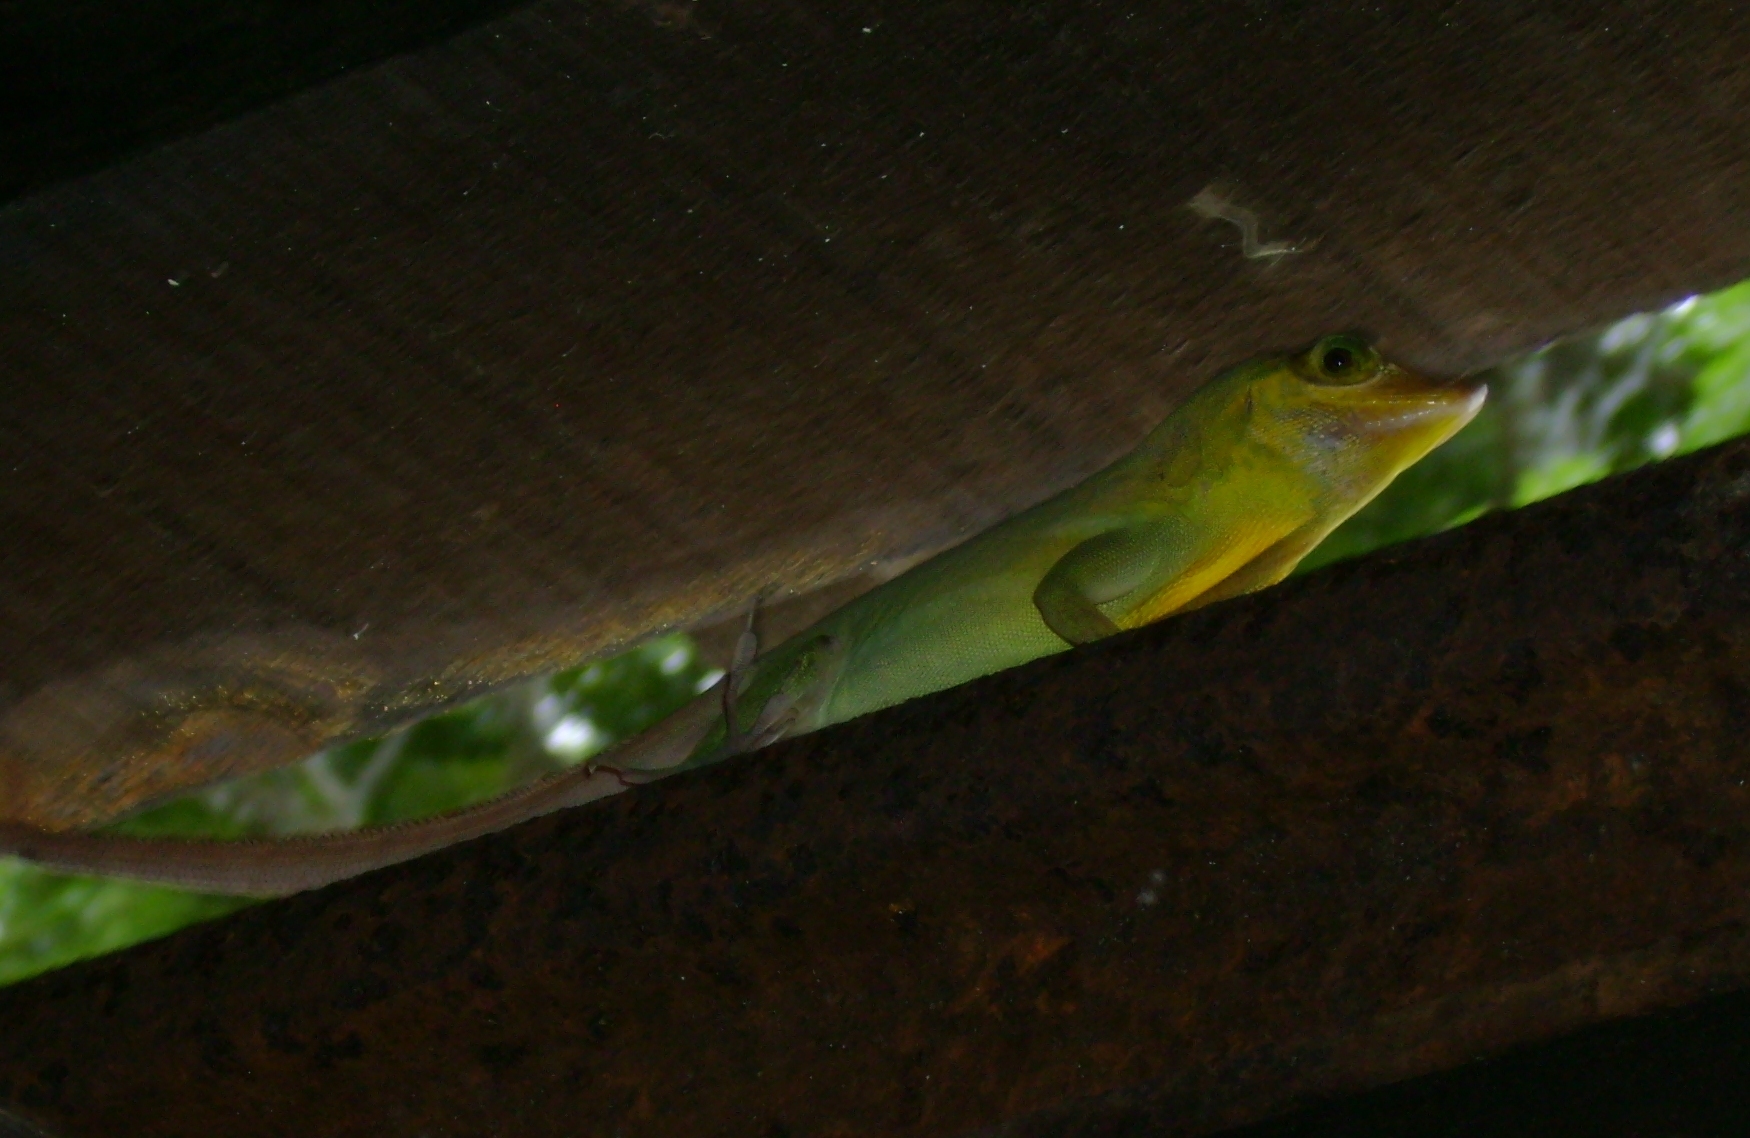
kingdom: Animalia
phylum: Chordata
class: Squamata
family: Dactyloidae
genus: Anolis
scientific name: Anolis richardii
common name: Grenada tree anole
